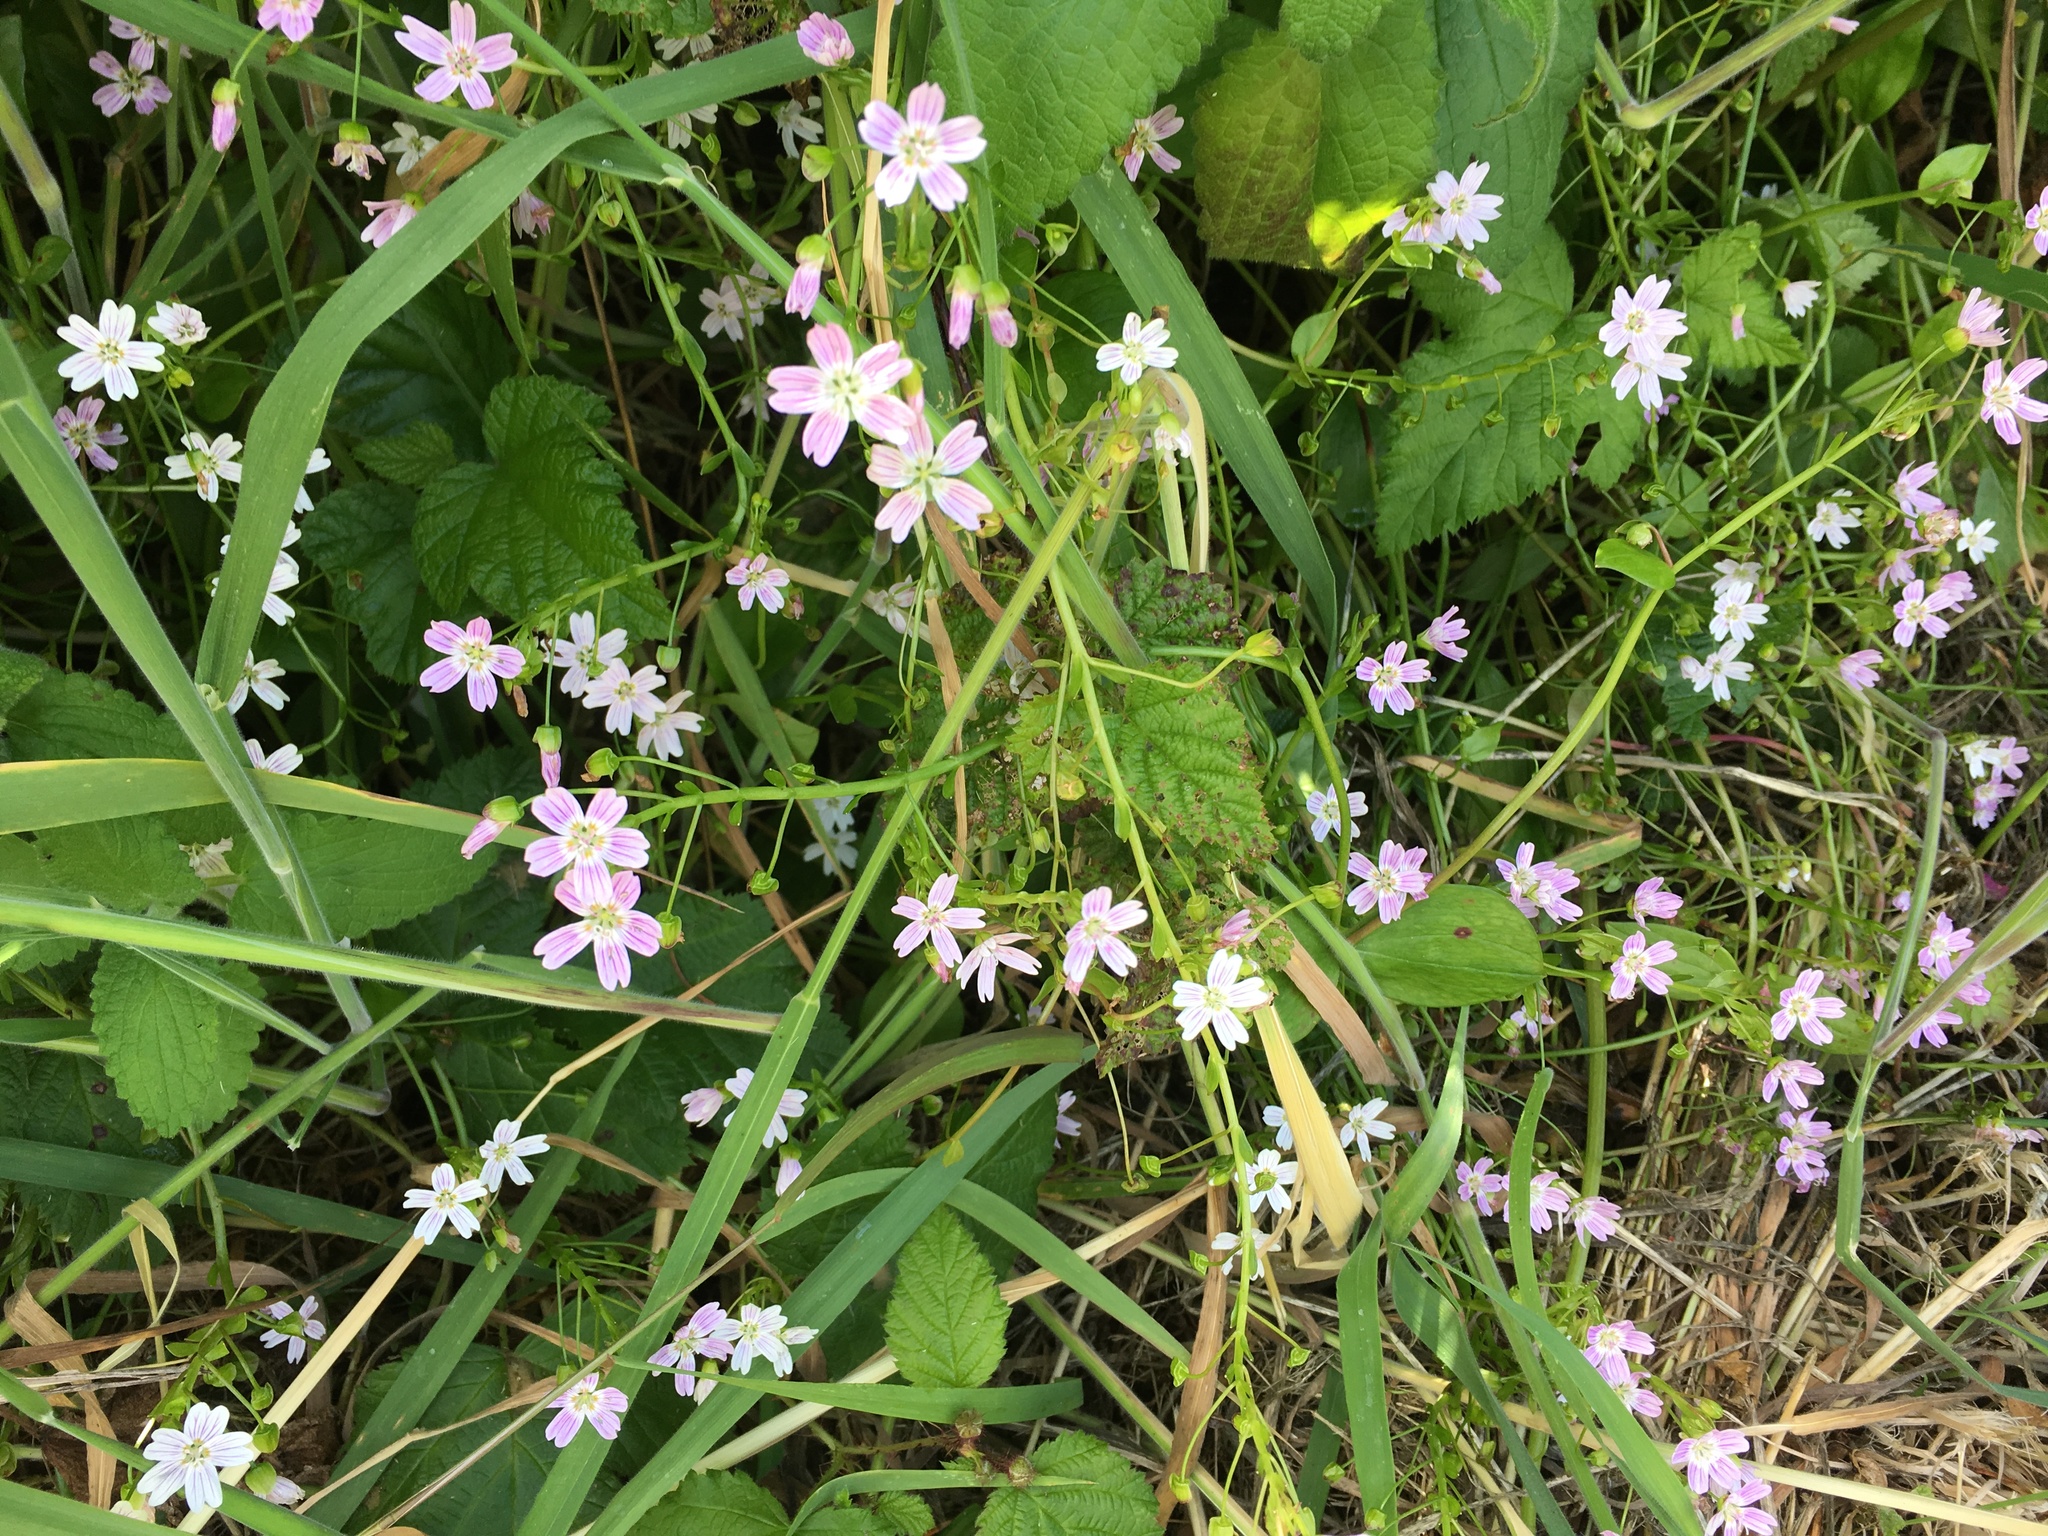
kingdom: Plantae
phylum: Tracheophyta
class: Magnoliopsida
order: Caryophyllales
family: Montiaceae
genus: Claytonia
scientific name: Claytonia sibirica
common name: Pink purslane
